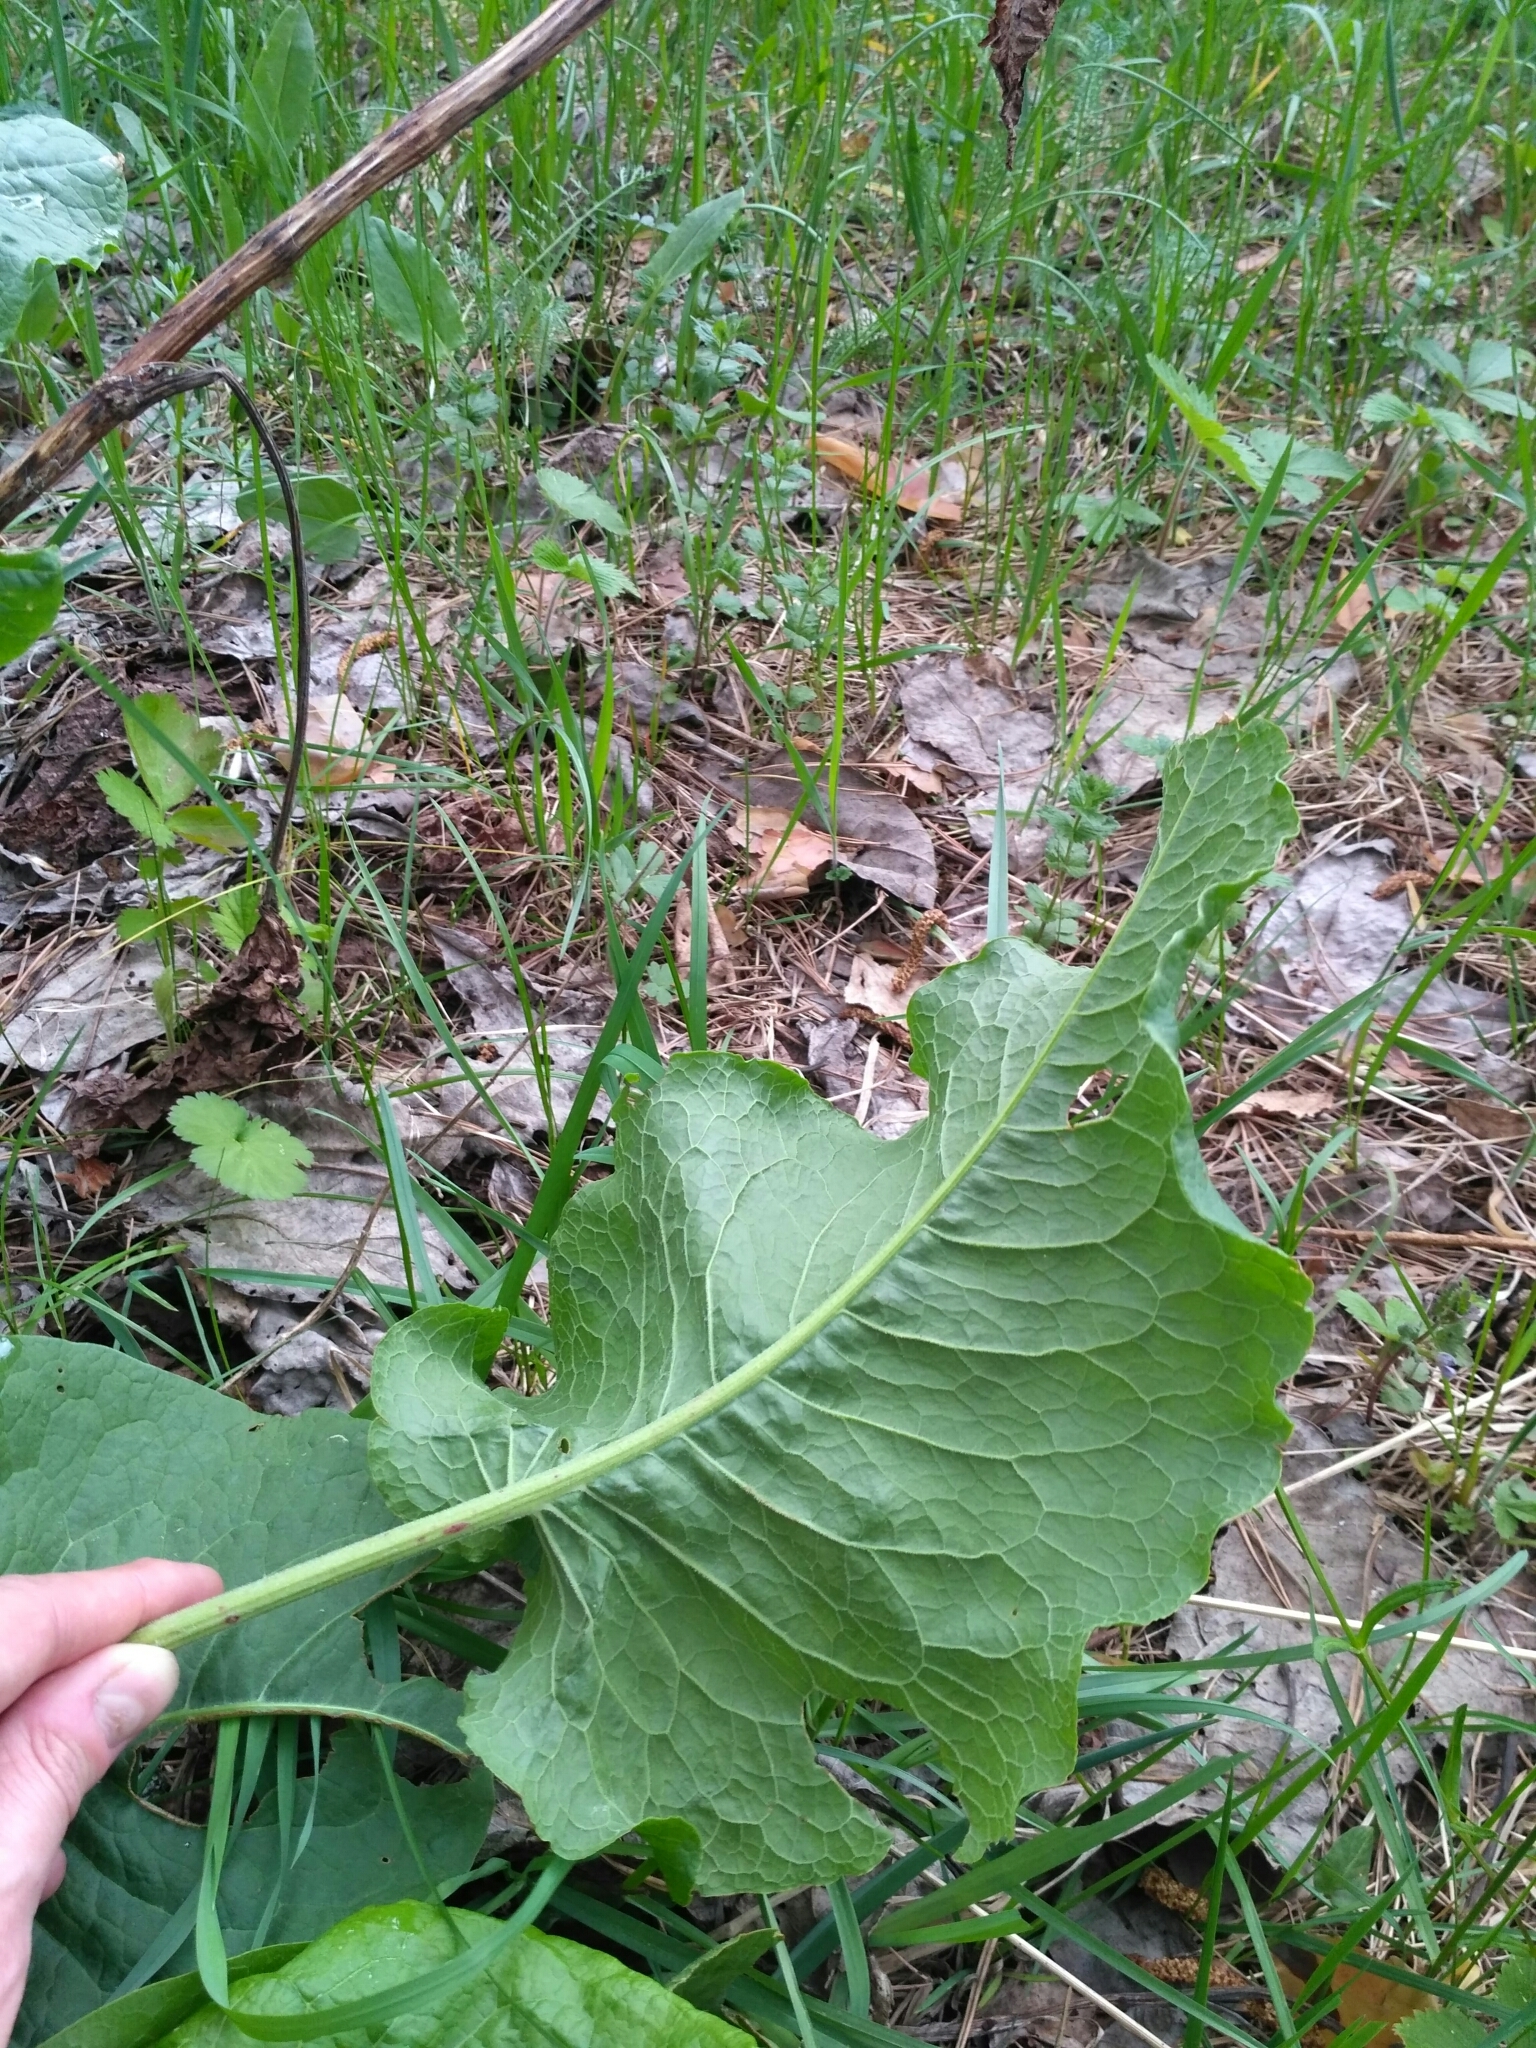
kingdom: Plantae
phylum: Tracheophyta
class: Magnoliopsida
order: Caryophyllales
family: Polygonaceae
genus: Rumex
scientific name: Rumex confertus
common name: Russian dock
